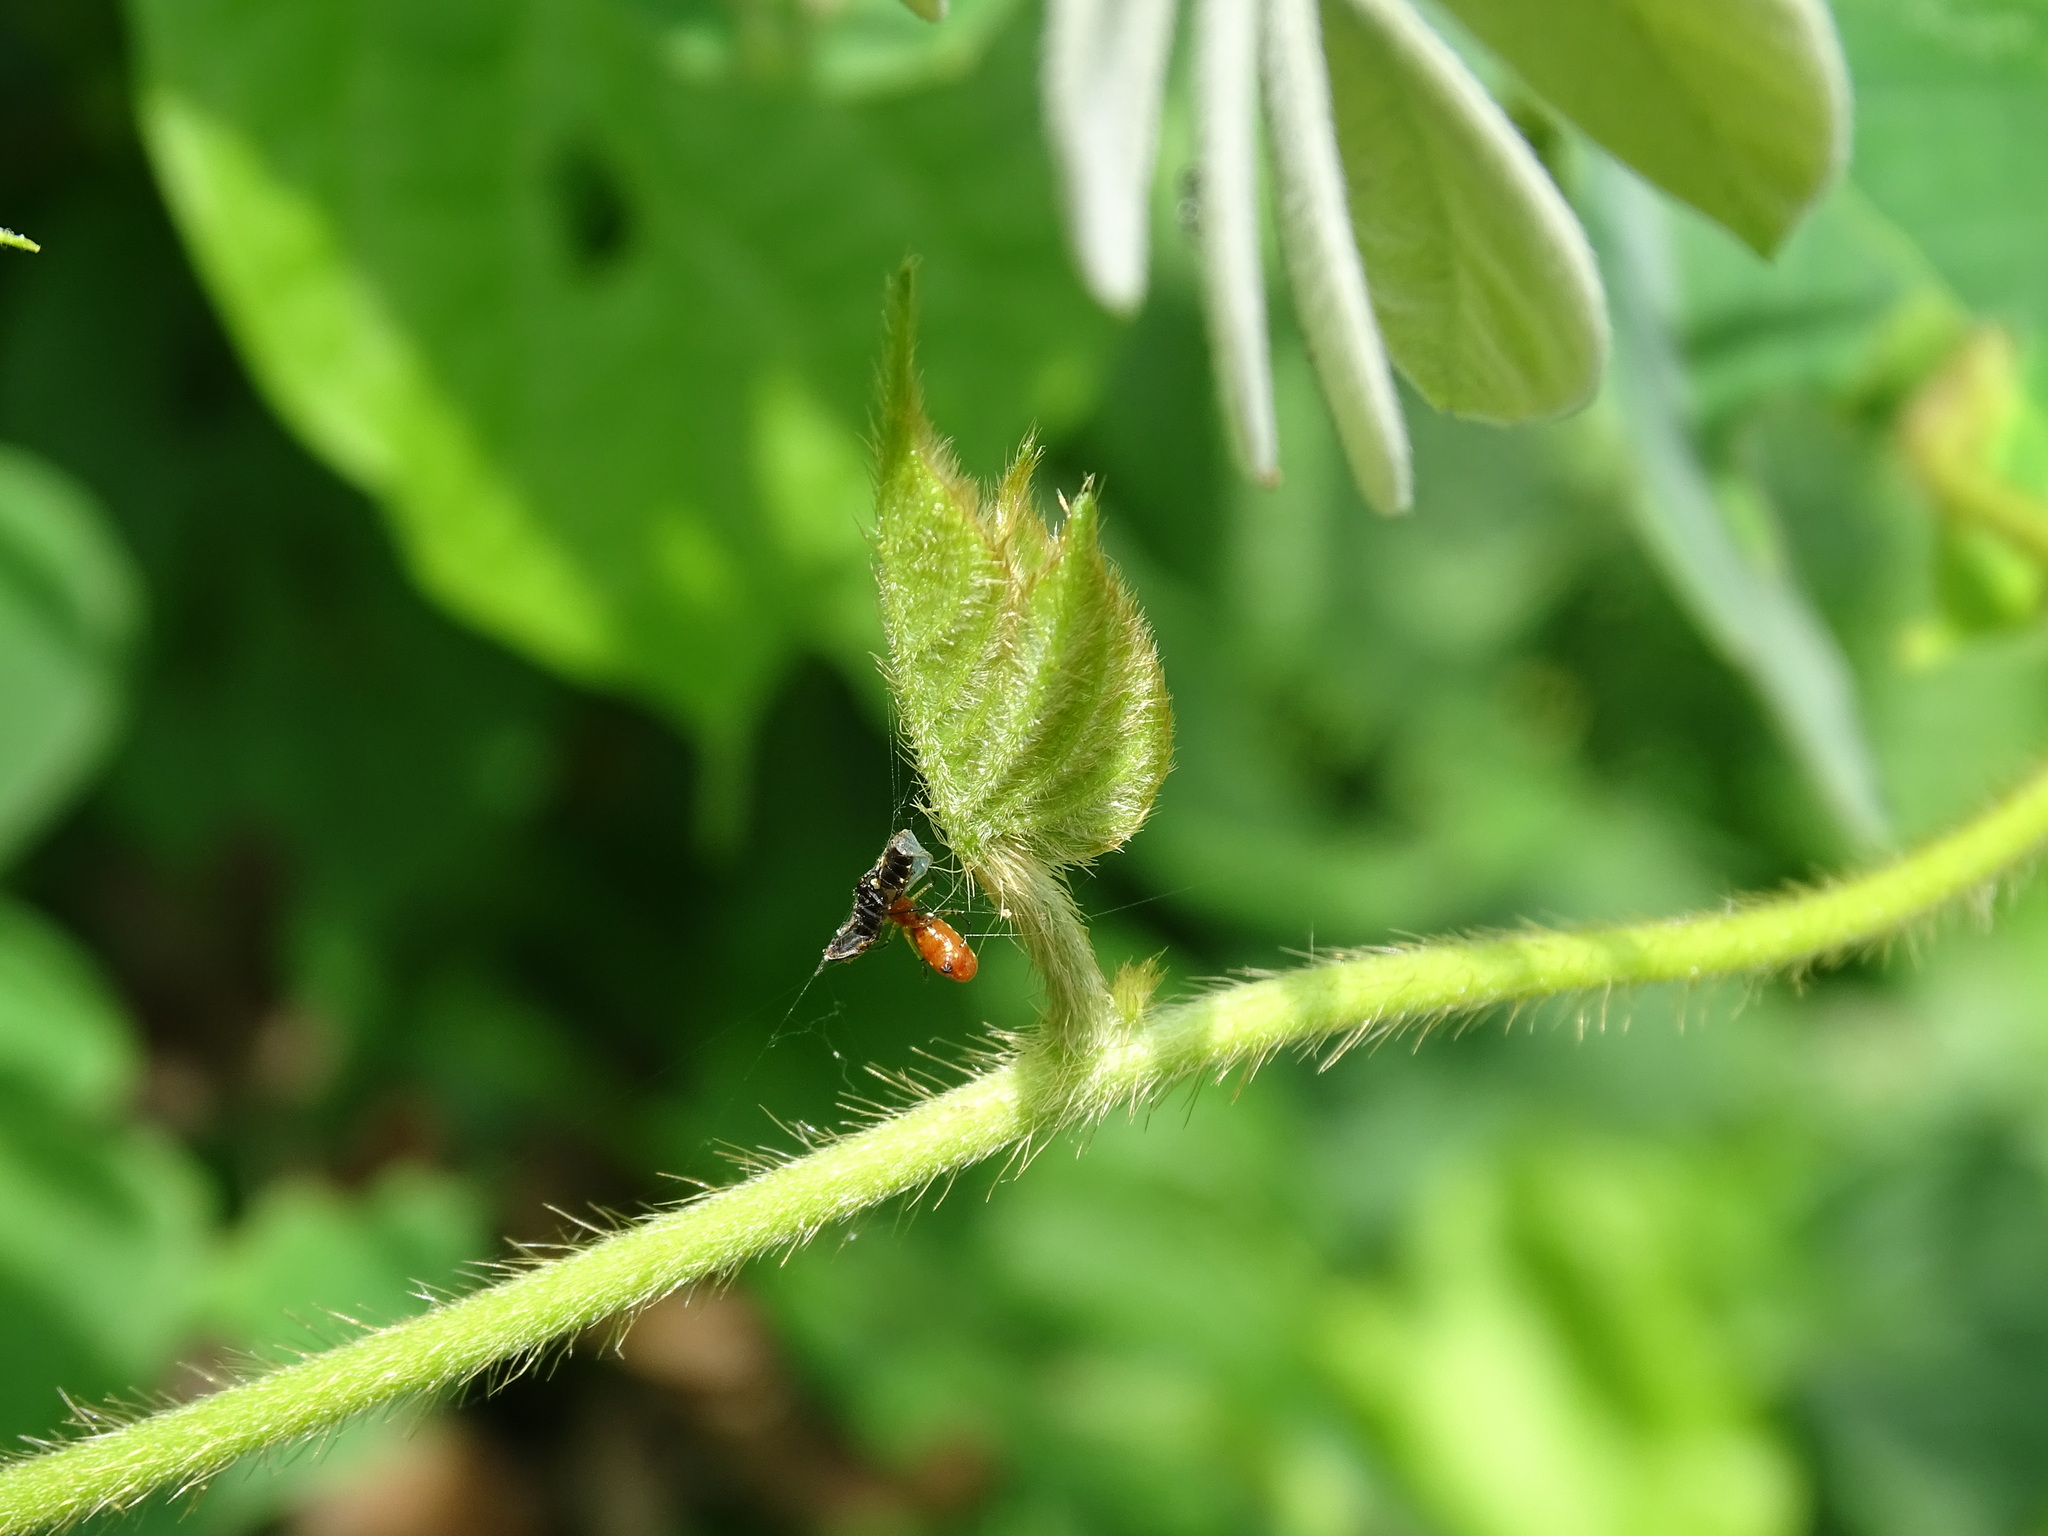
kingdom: Animalia
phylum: Arthropoda
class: Arachnida
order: Araneae
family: Araneidae
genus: Micrathena
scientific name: Micrathena funebris
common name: Orb weavers
